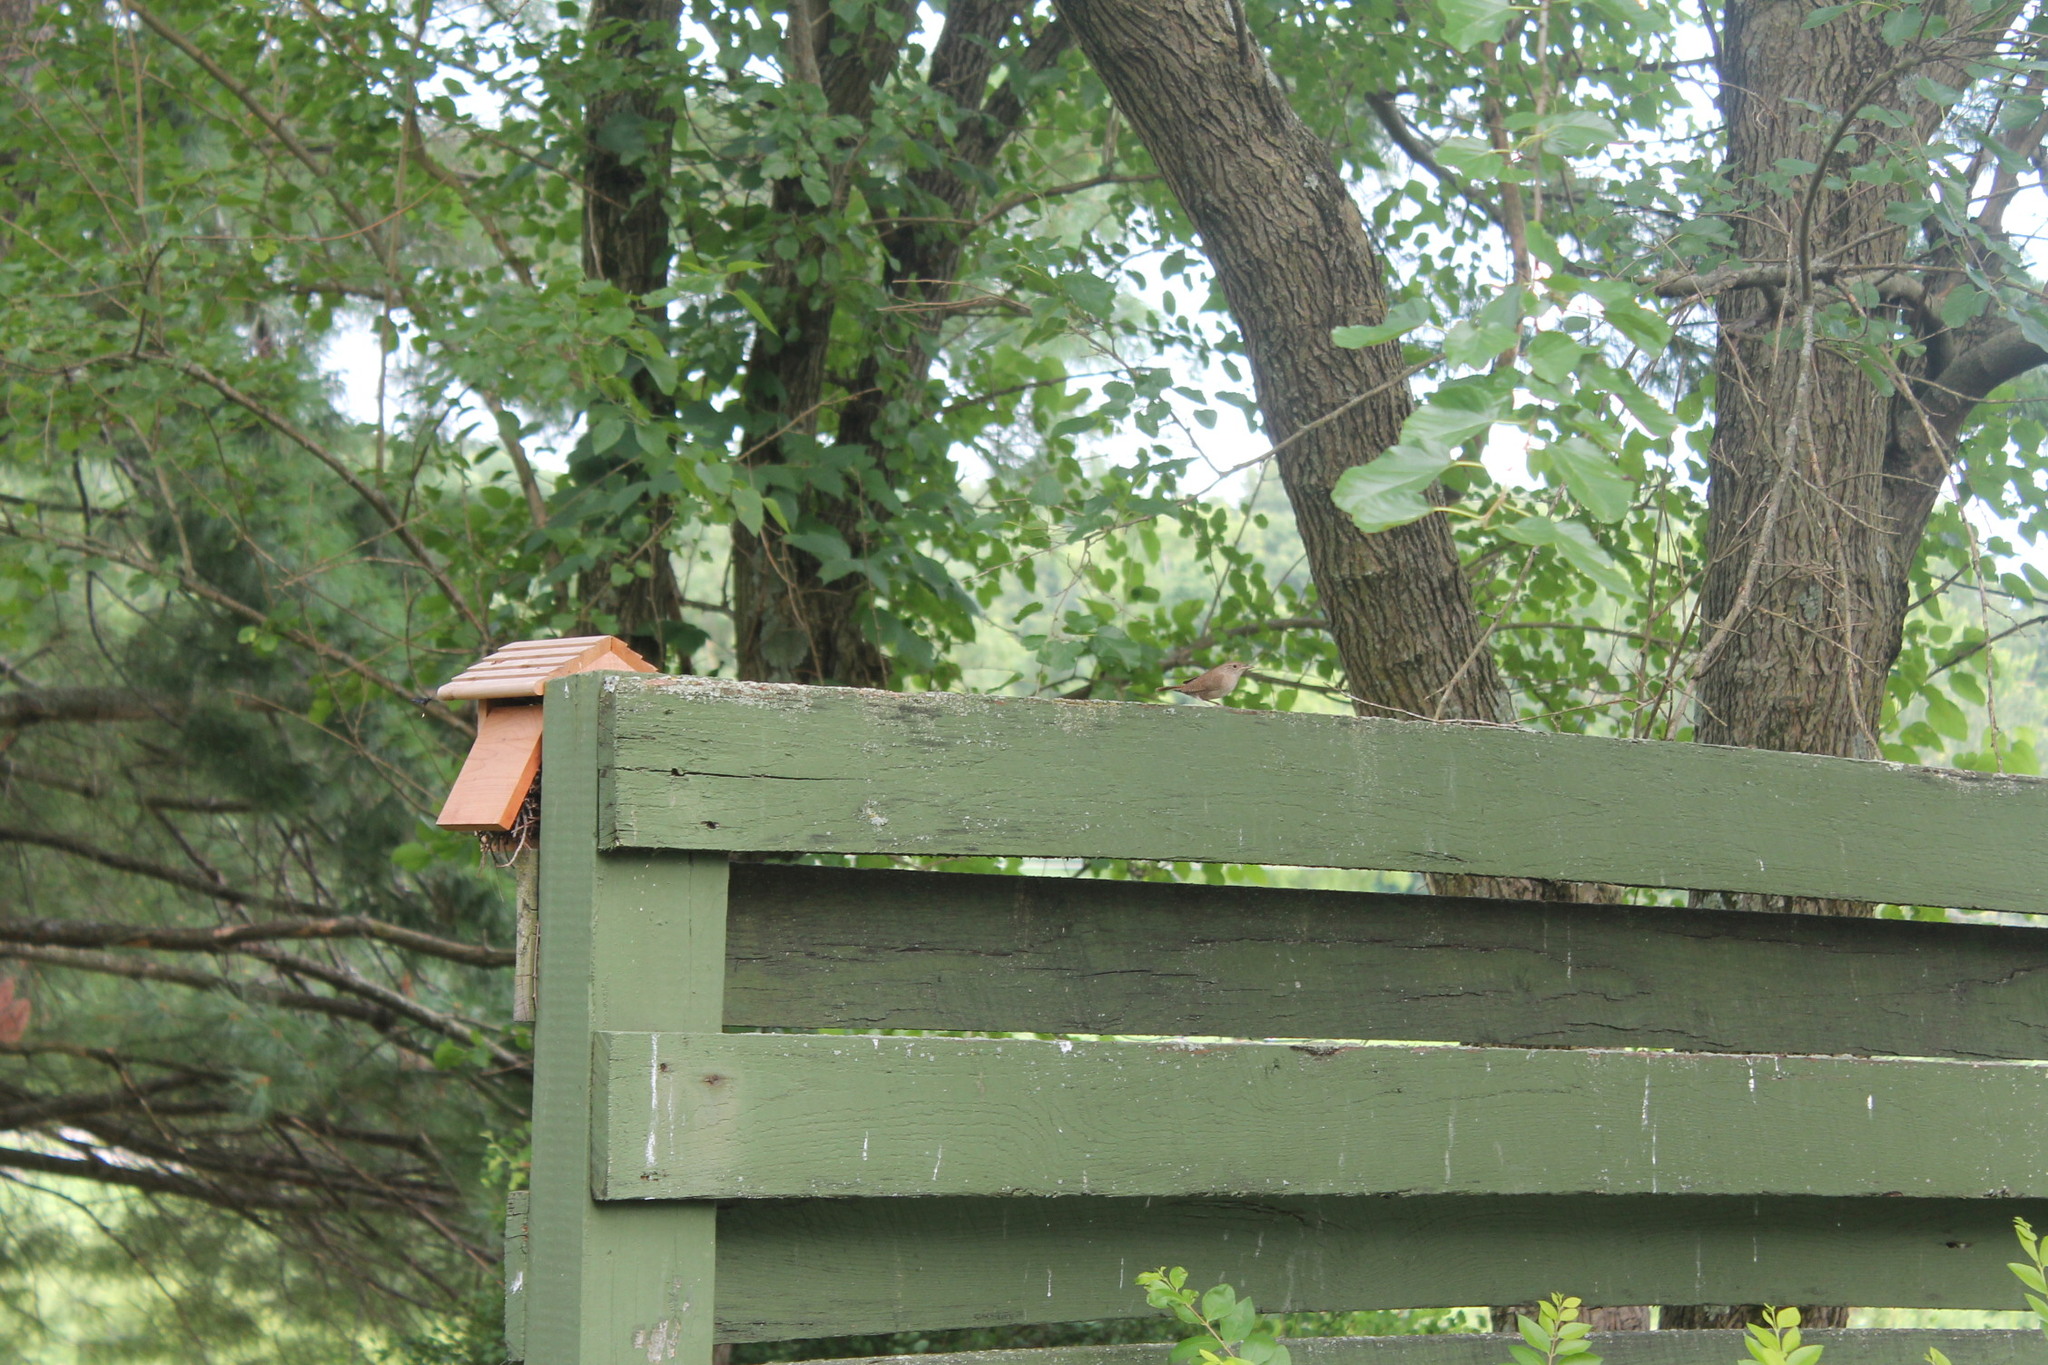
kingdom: Animalia
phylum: Chordata
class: Aves
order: Passeriformes
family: Troglodytidae
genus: Troglodytes
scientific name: Troglodytes aedon
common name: House wren
